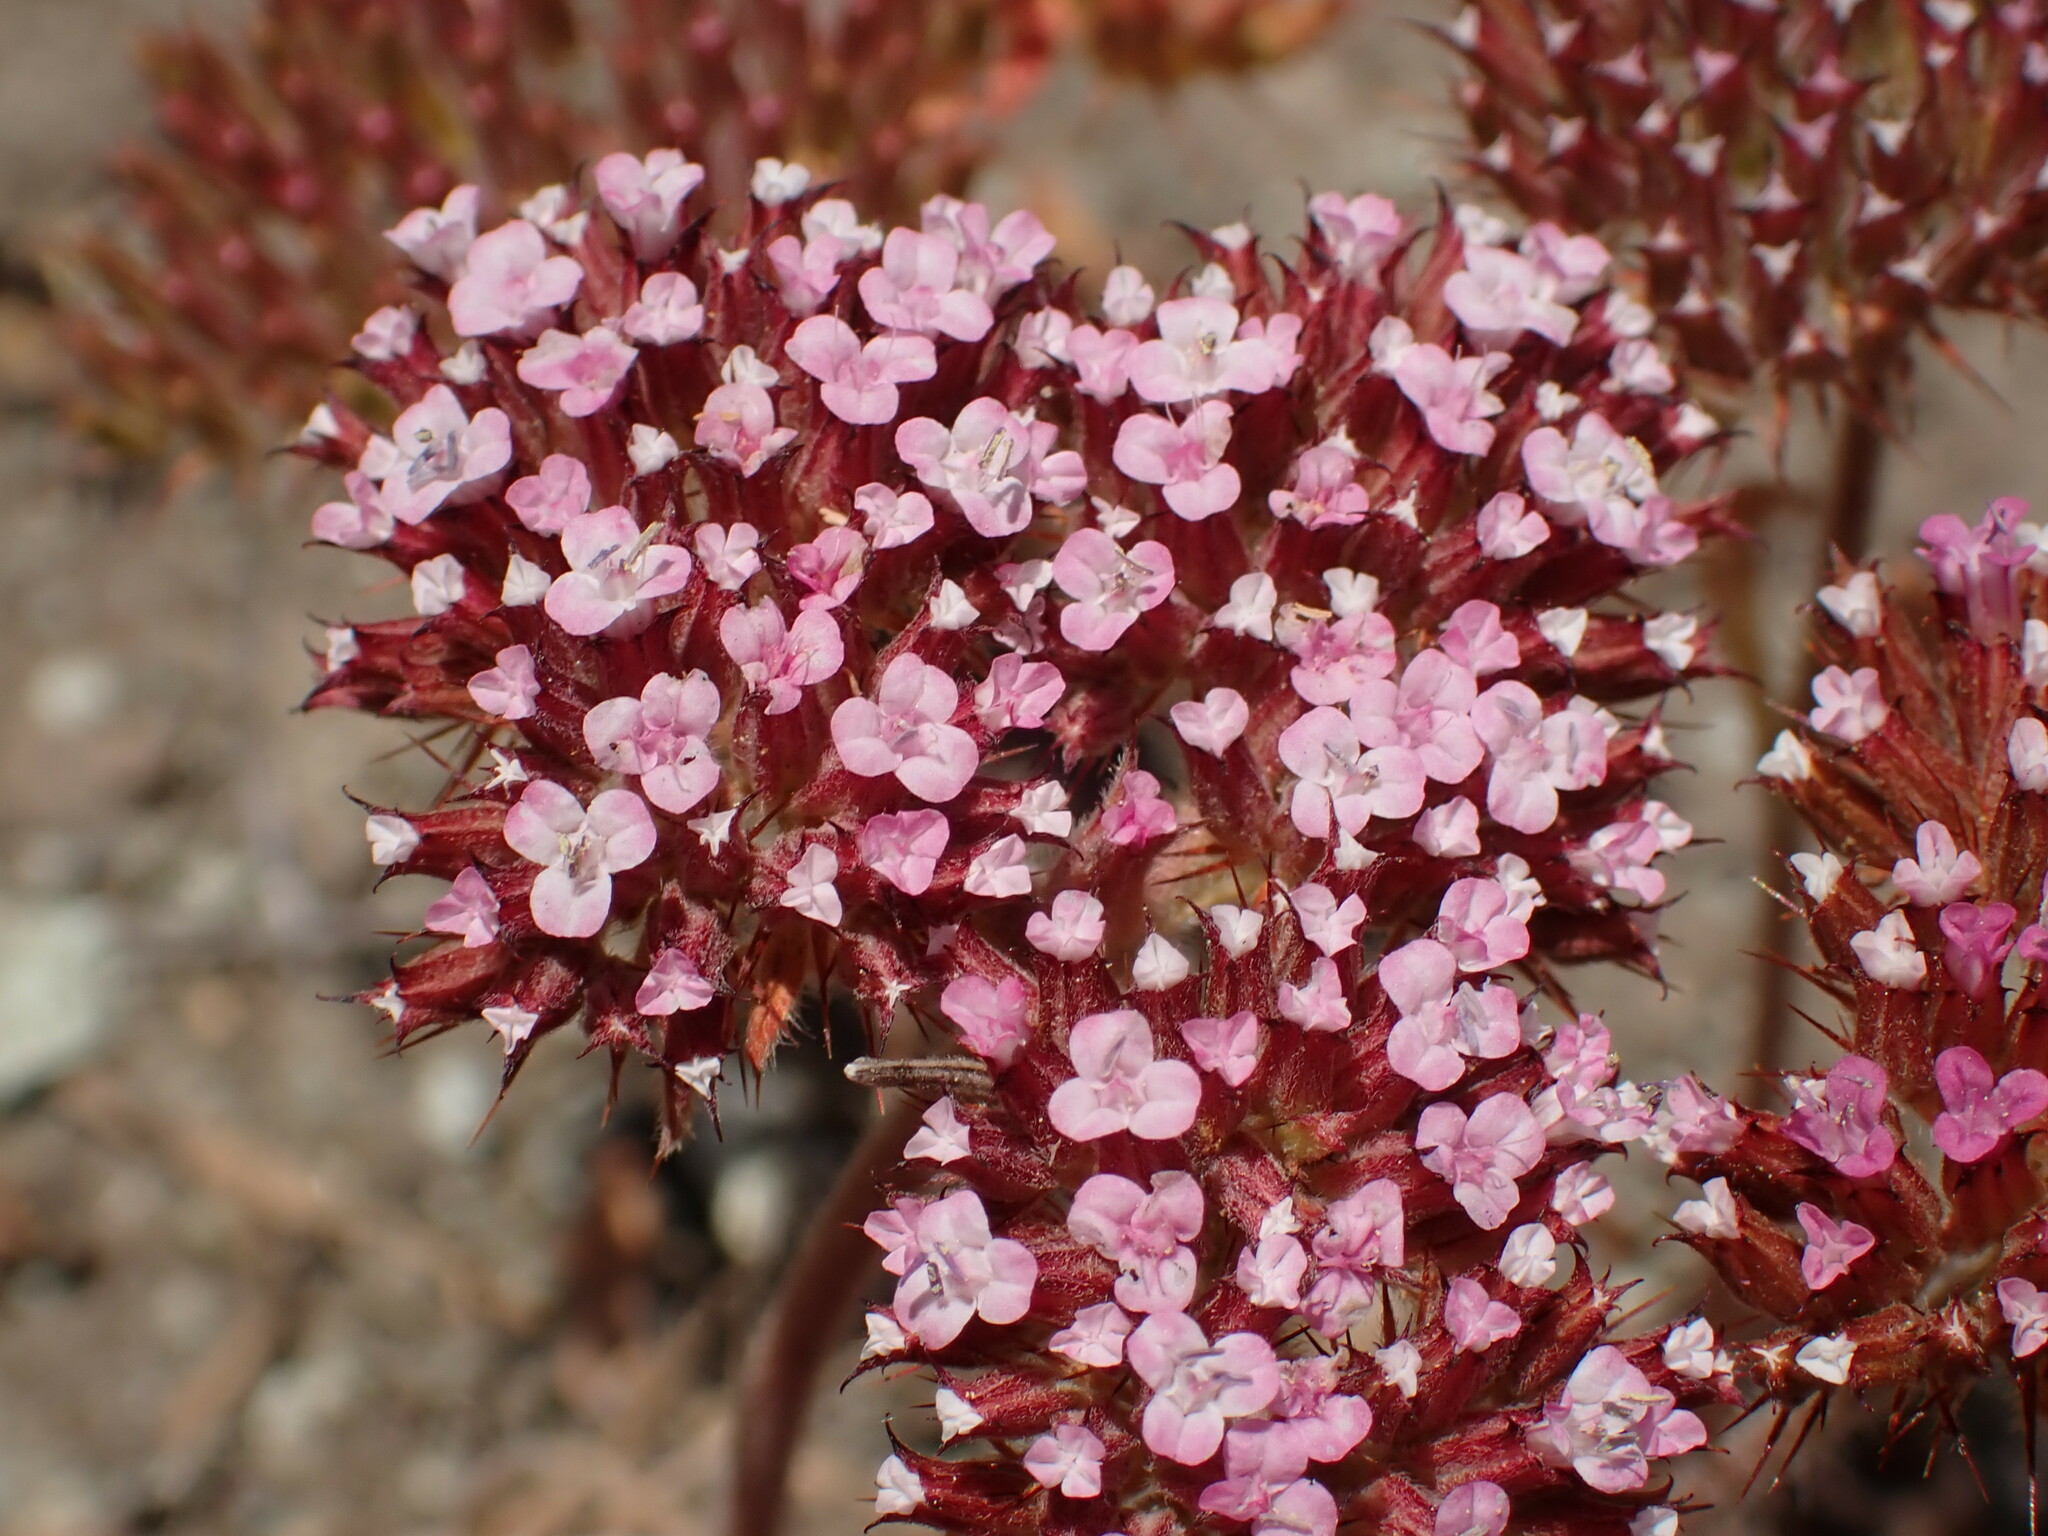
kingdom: Plantae
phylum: Tracheophyta
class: Magnoliopsida
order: Caryophyllales
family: Polygonaceae
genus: Chorizanthe
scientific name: Chorizanthe obovata
